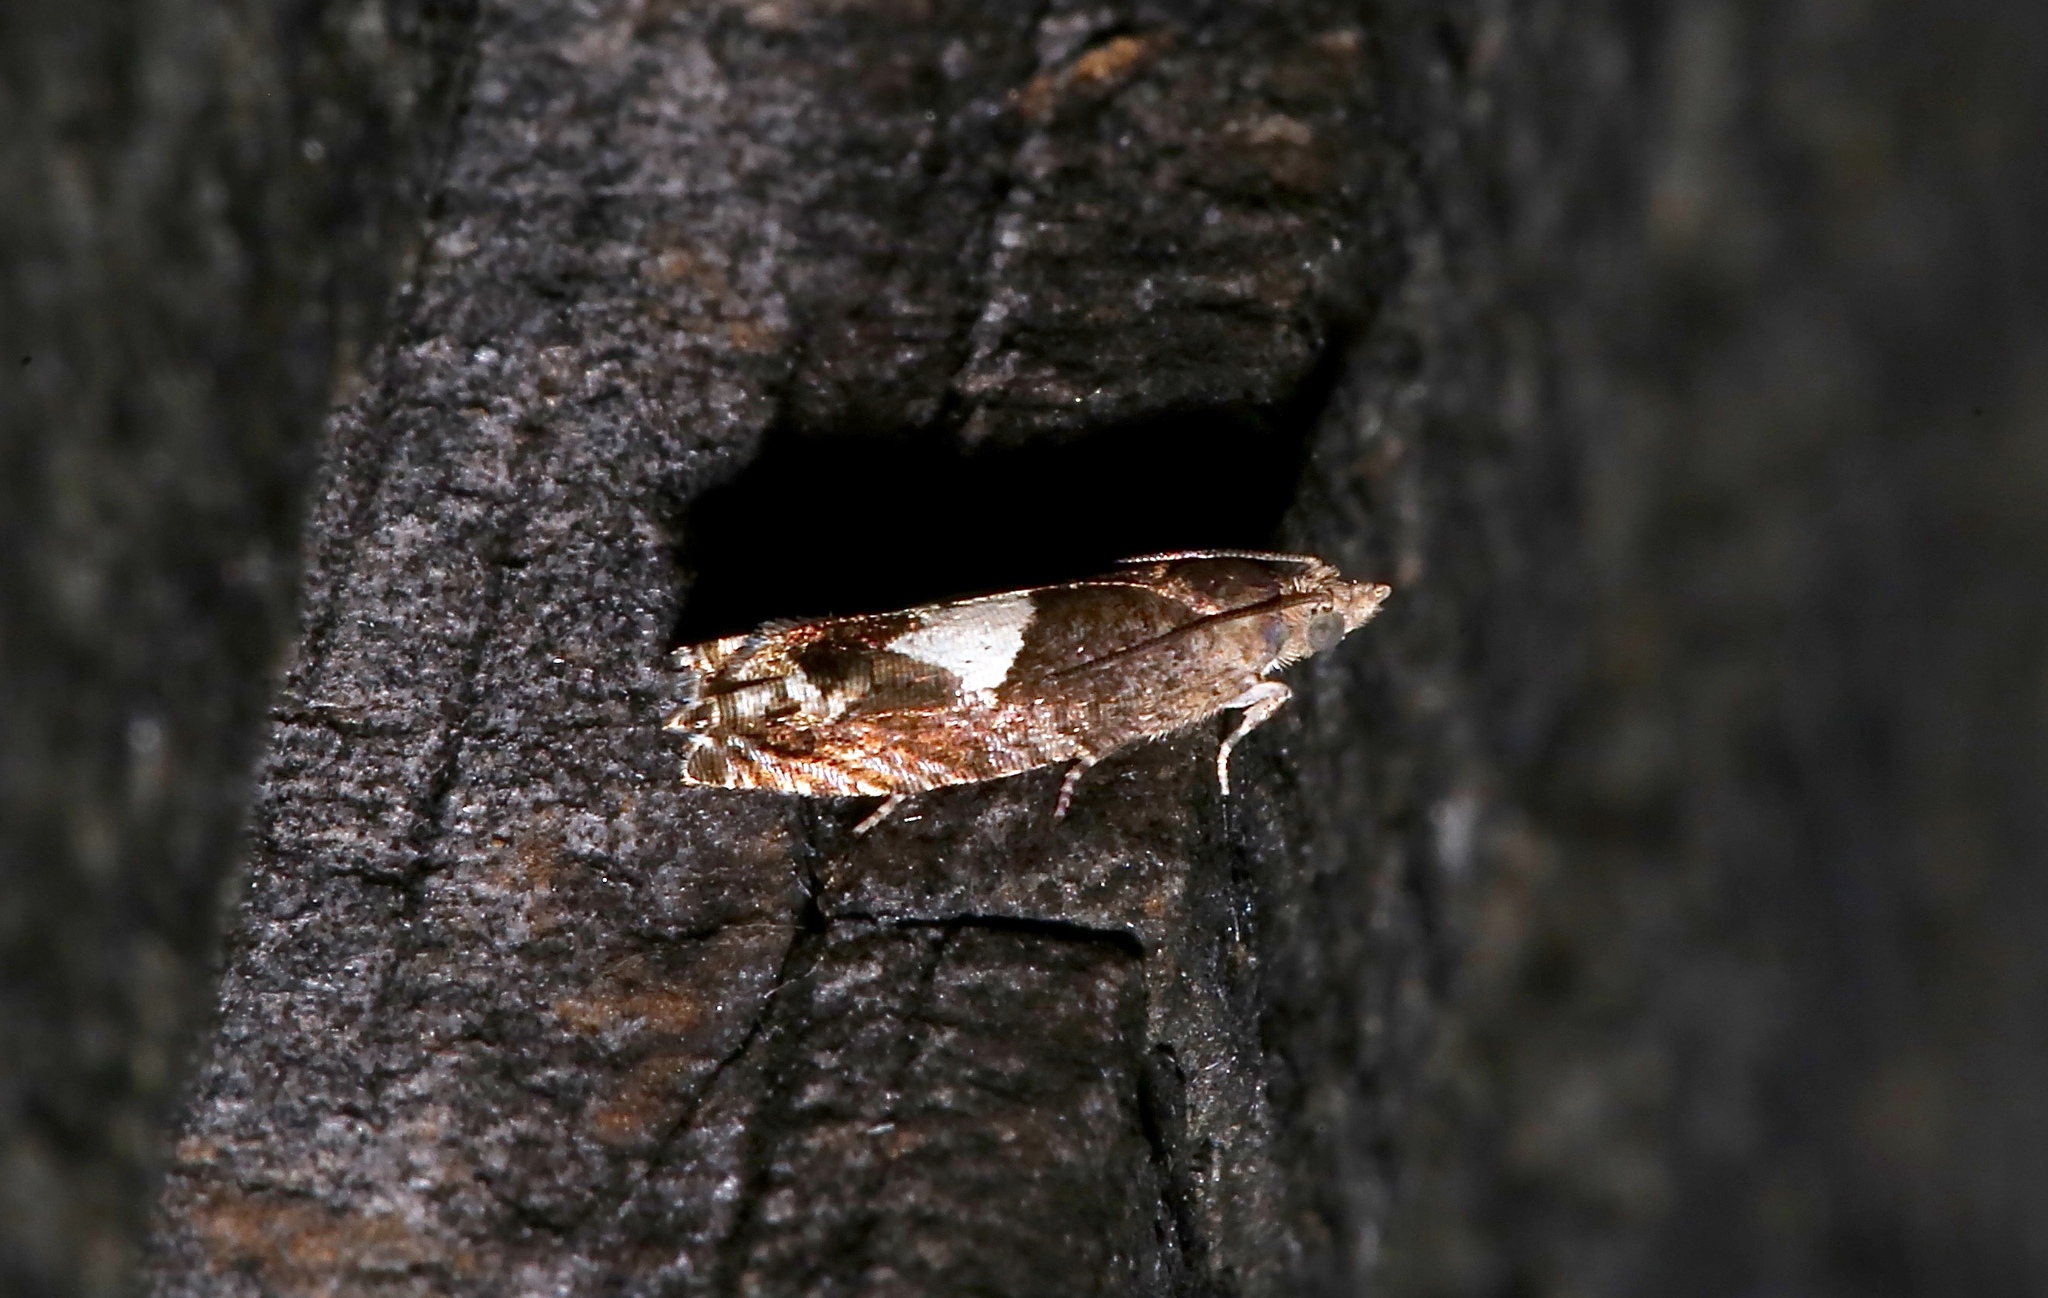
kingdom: Animalia
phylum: Arthropoda
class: Insecta
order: Lepidoptera
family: Tortricidae
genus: Epiblema
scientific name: Epiblema otiosana
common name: Bidens borer moth
